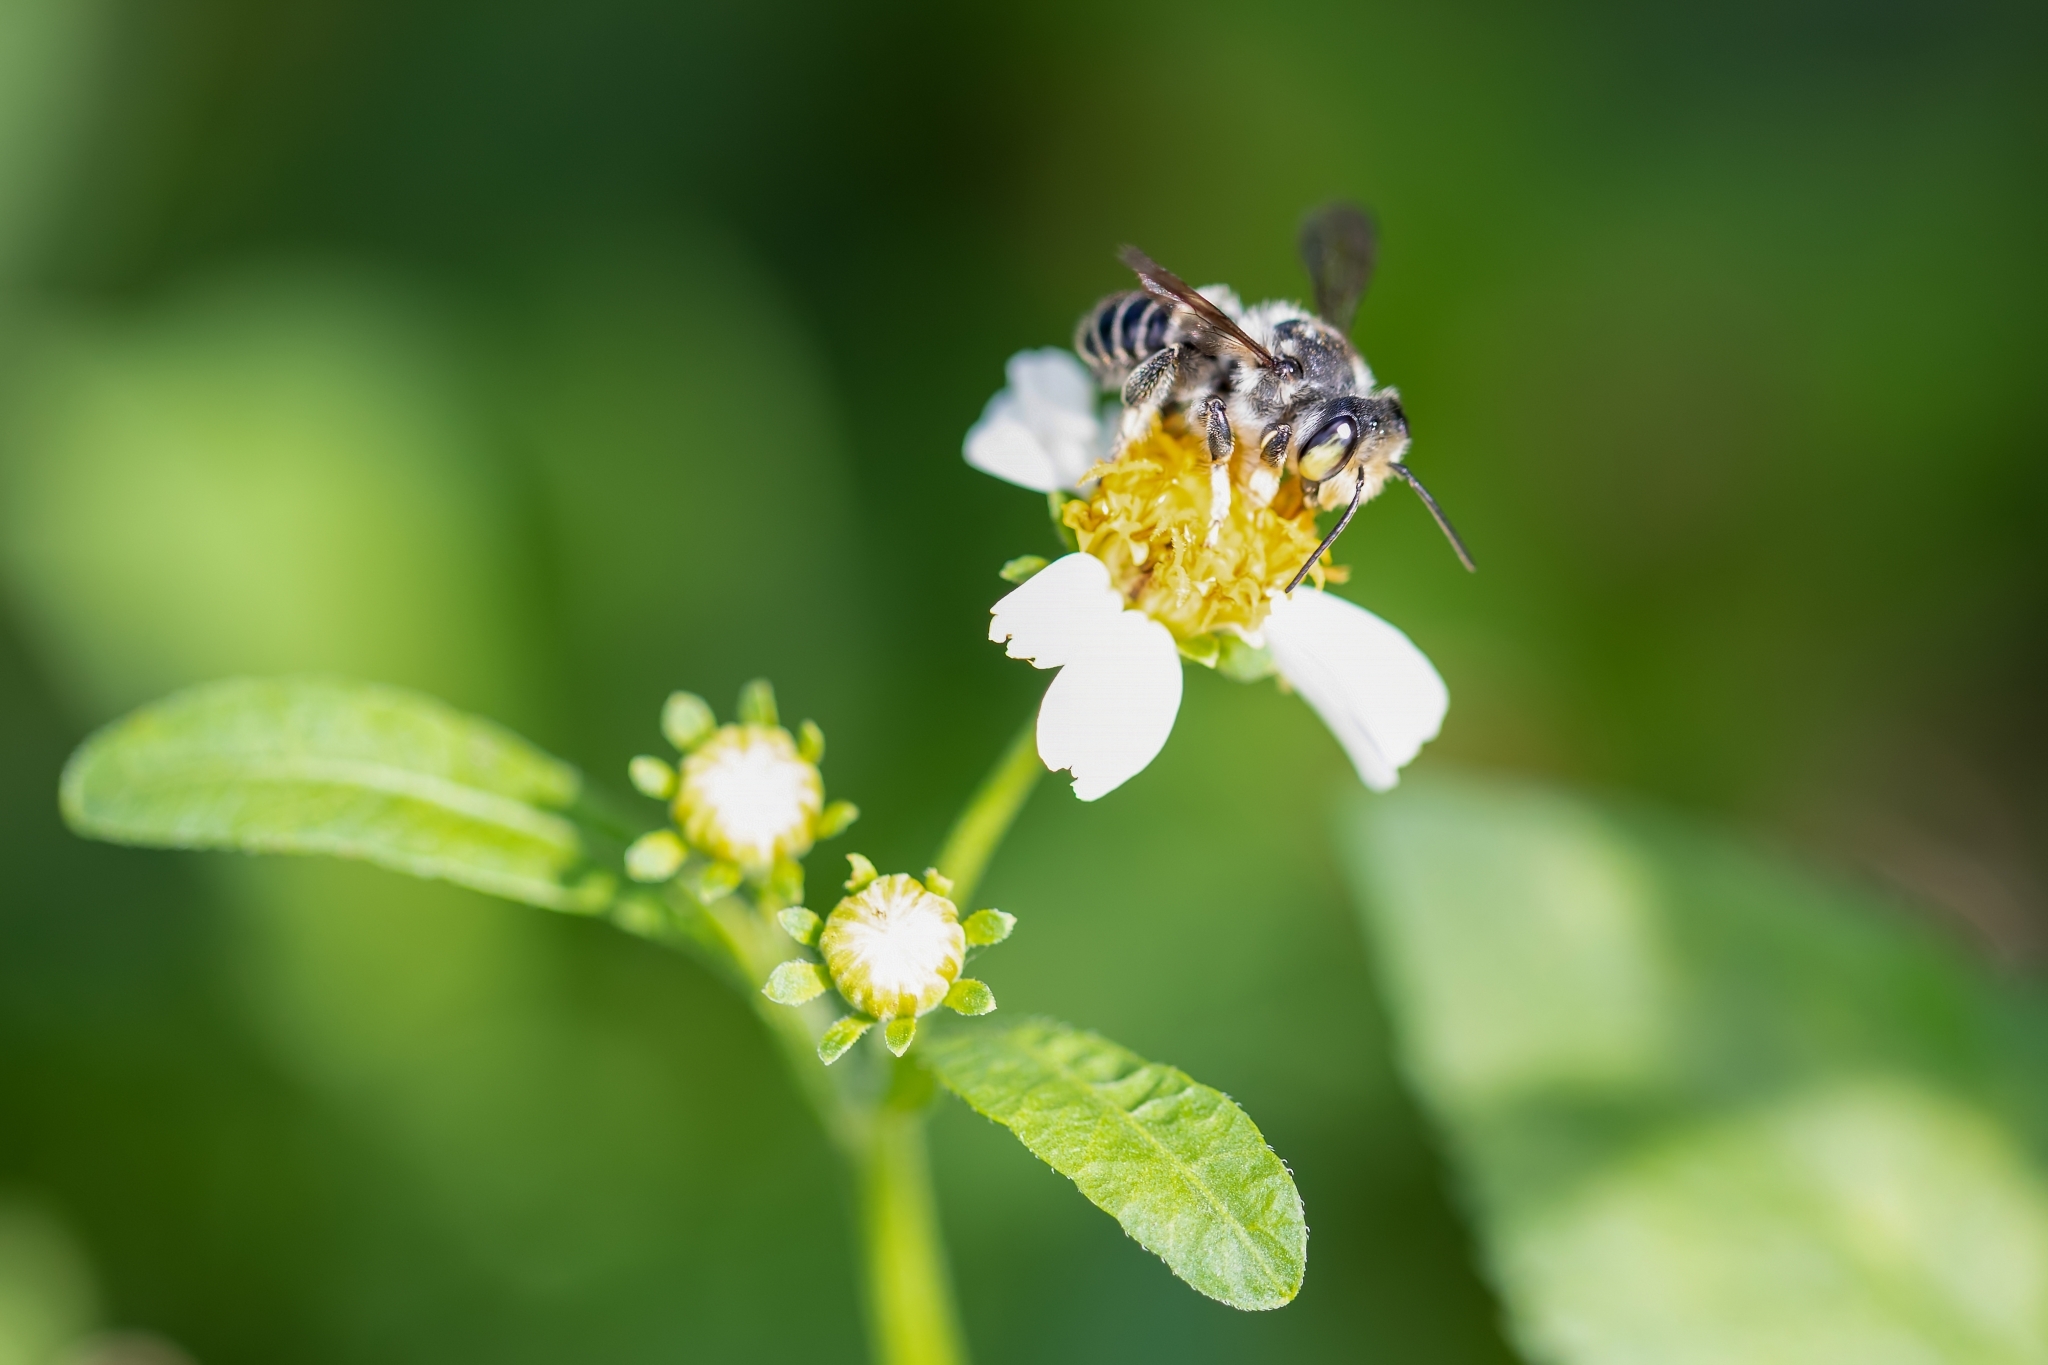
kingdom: Animalia
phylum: Arthropoda
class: Insecta
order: Hymenoptera
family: Megachilidae
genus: Megachile
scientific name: Megachile pruina
